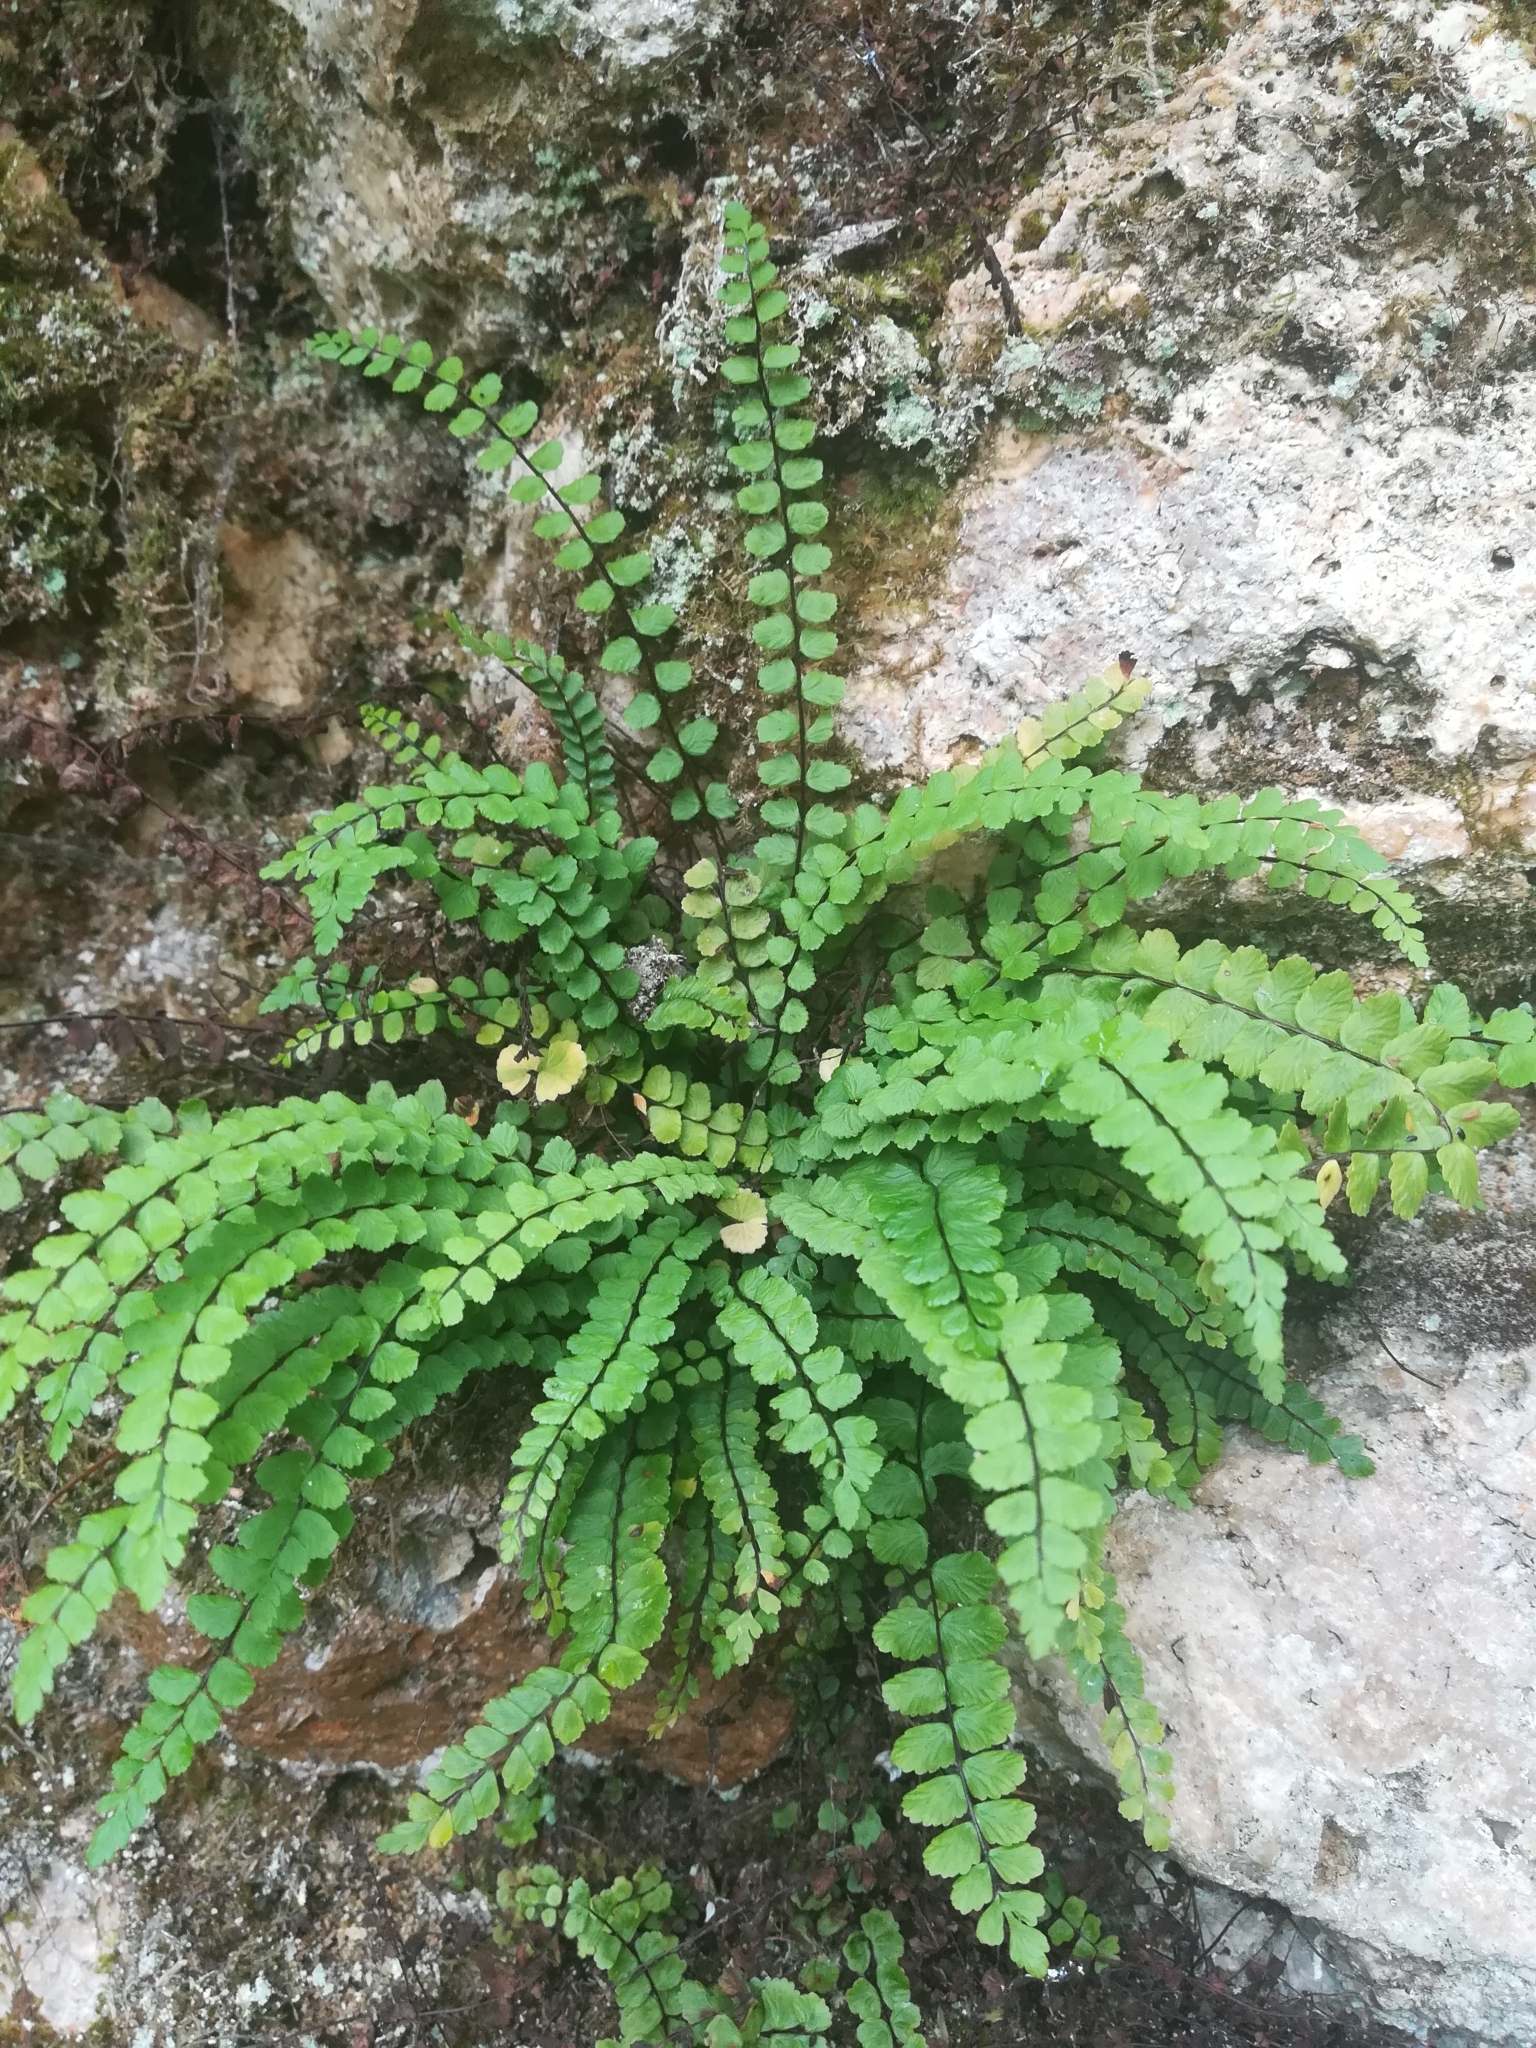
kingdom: Plantae
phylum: Tracheophyta
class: Polypodiopsida
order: Polypodiales
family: Aspleniaceae
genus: Asplenium
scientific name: Asplenium trichomanes
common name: Maidenhair spleenwort
